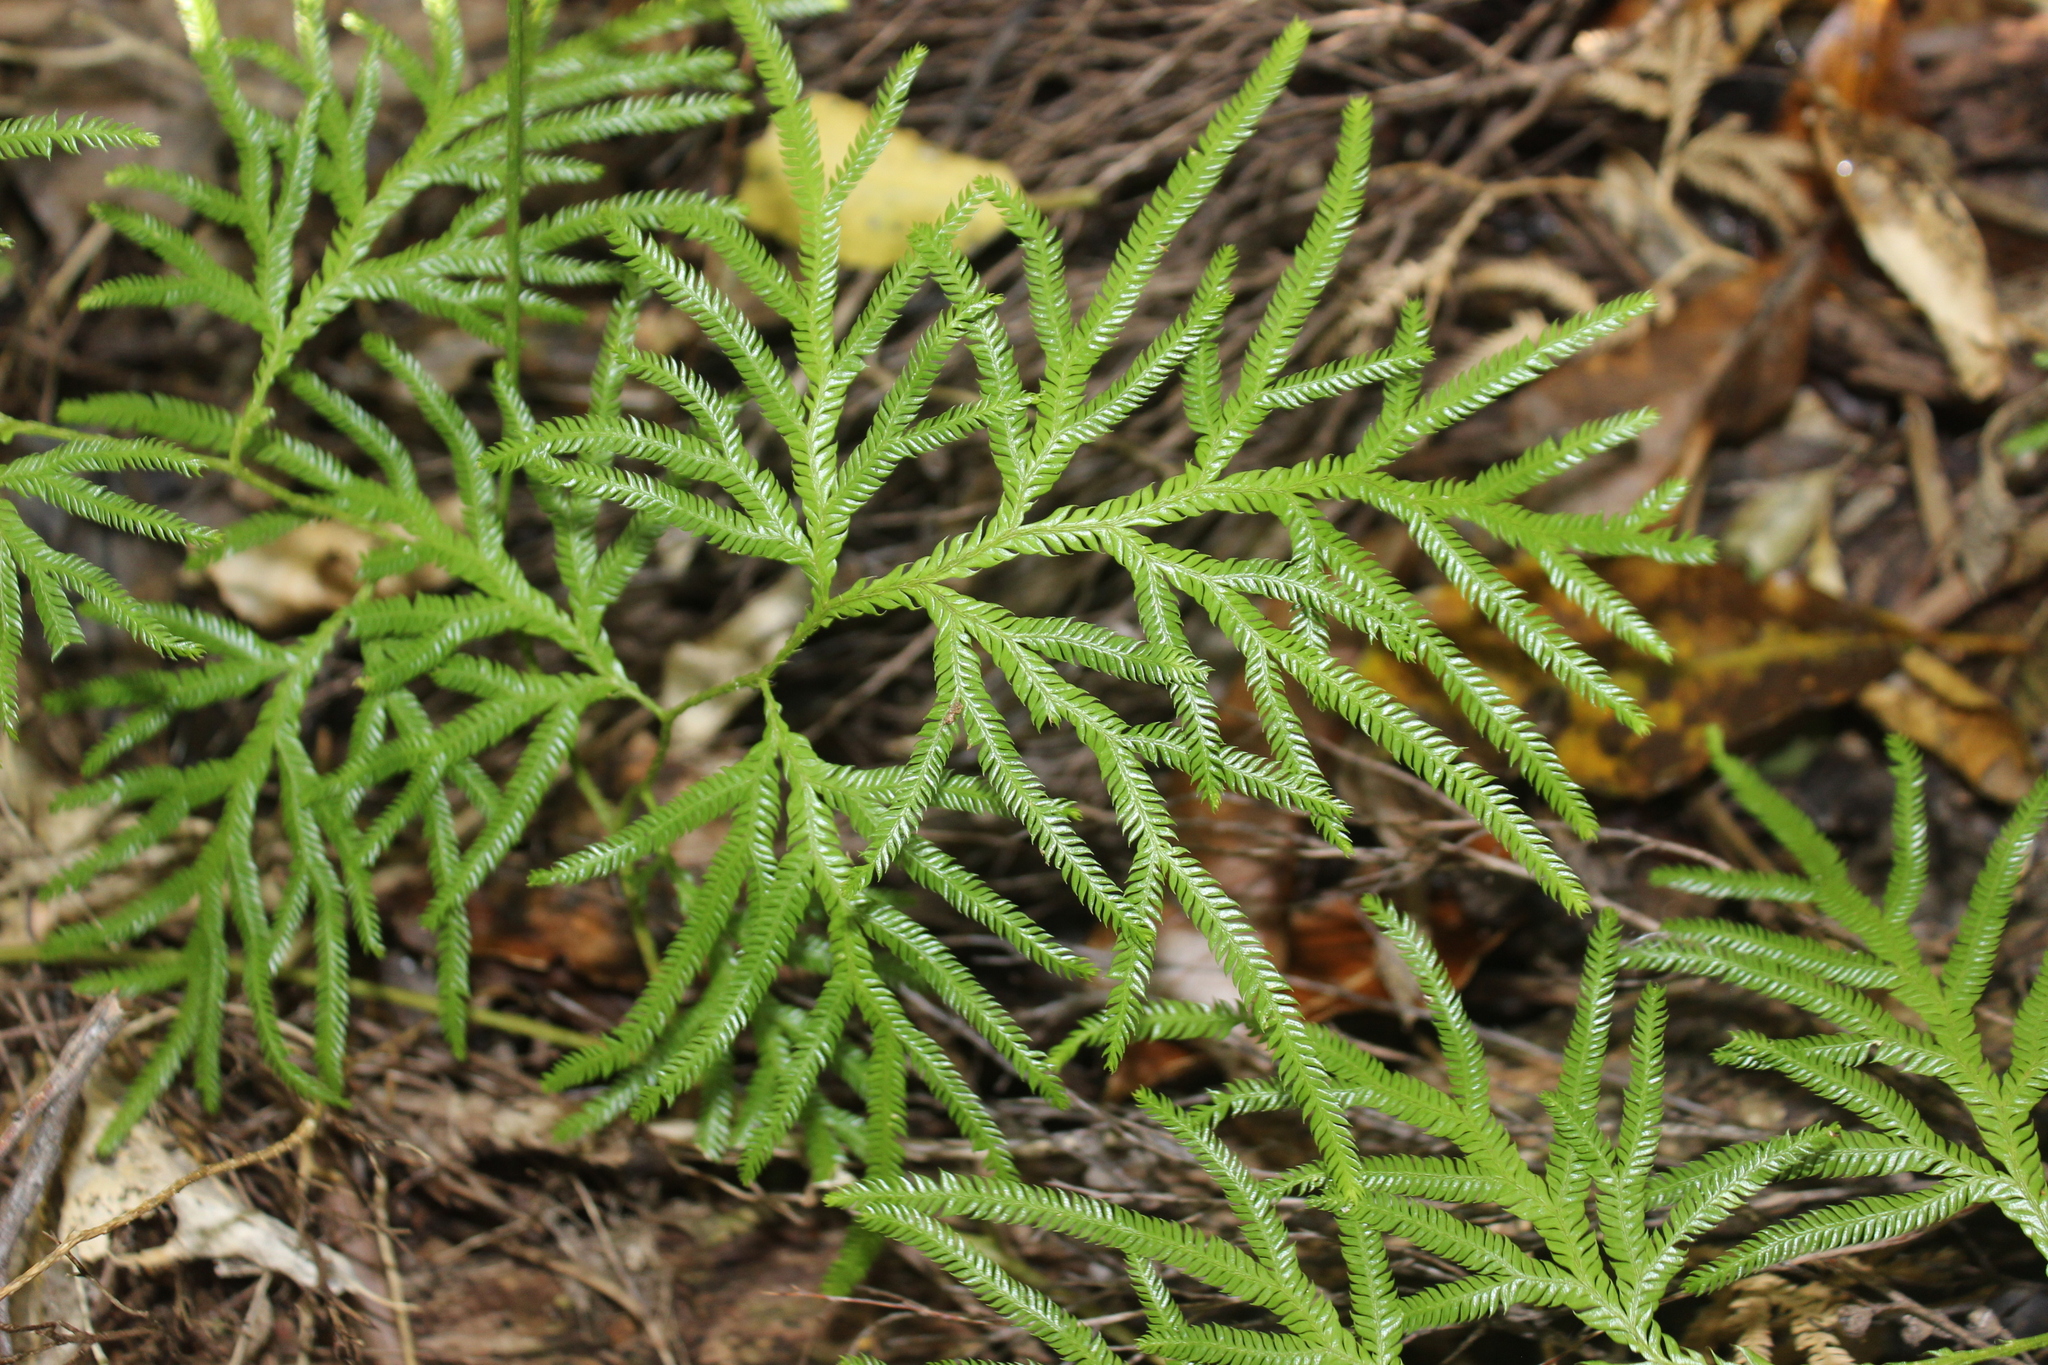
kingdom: Plantae
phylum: Tracheophyta
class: Lycopodiopsida
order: Lycopodiales
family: Lycopodiaceae
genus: Lycopodium
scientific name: Lycopodium volubile
